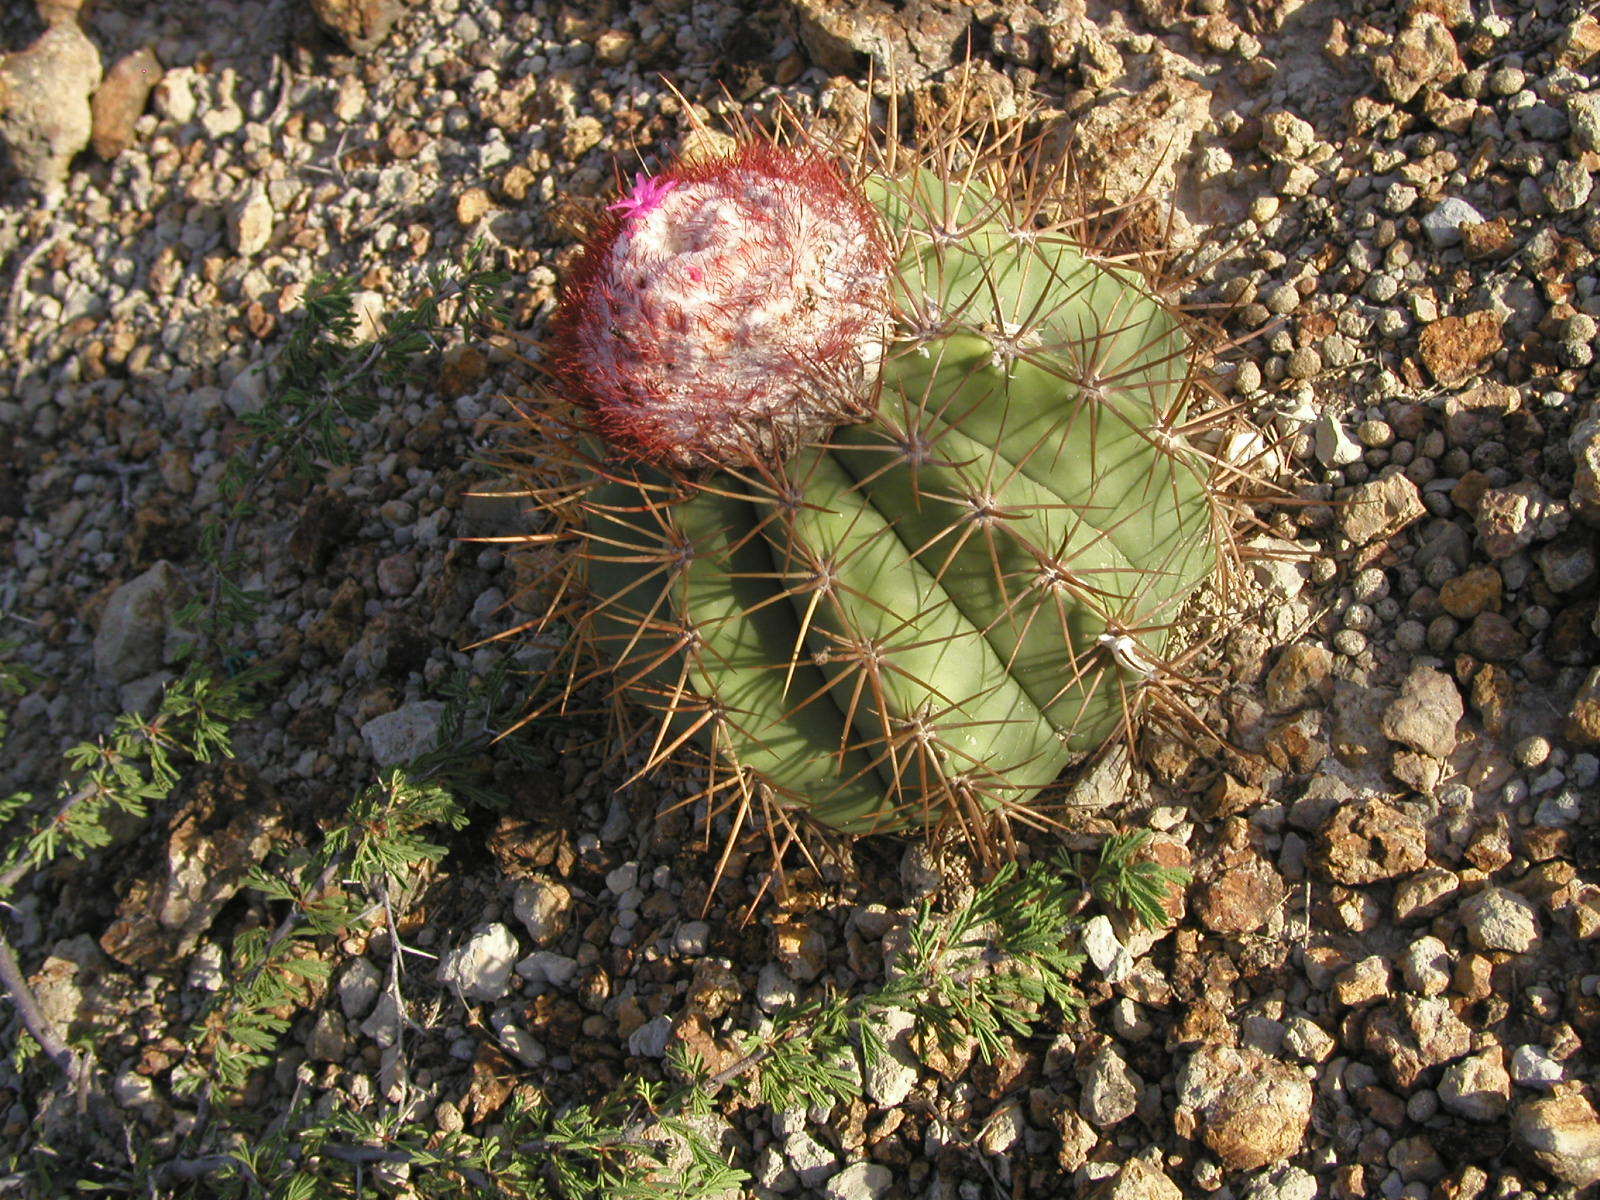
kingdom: Plantae
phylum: Tracheophyta
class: Magnoliopsida
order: Caryophyllales
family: Cactaceae
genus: Melocactus
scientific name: Melocactus curvispinus
